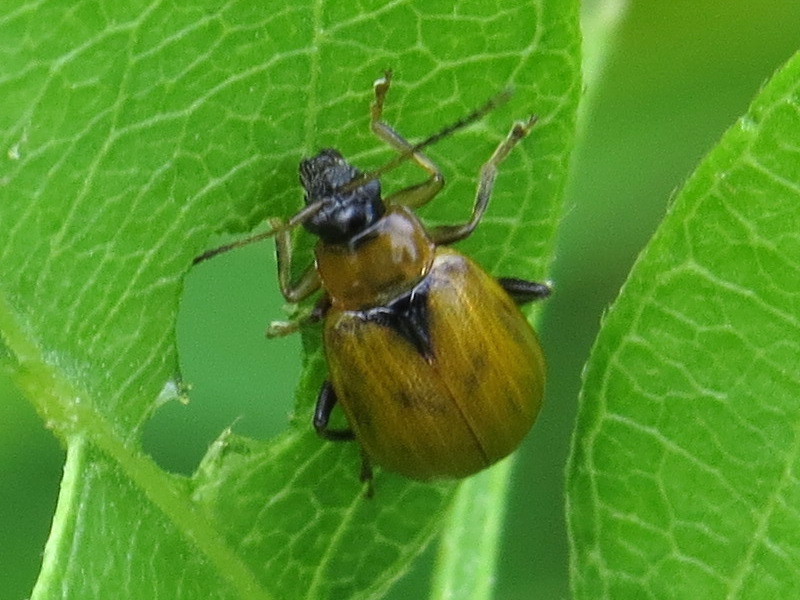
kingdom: Animalia
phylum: Arthropoda
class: Insecta
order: Coleoptera
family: Chrysomelidae
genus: Cerotoma
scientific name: Cerotoma trifurcata
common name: Bean leaf beetle
